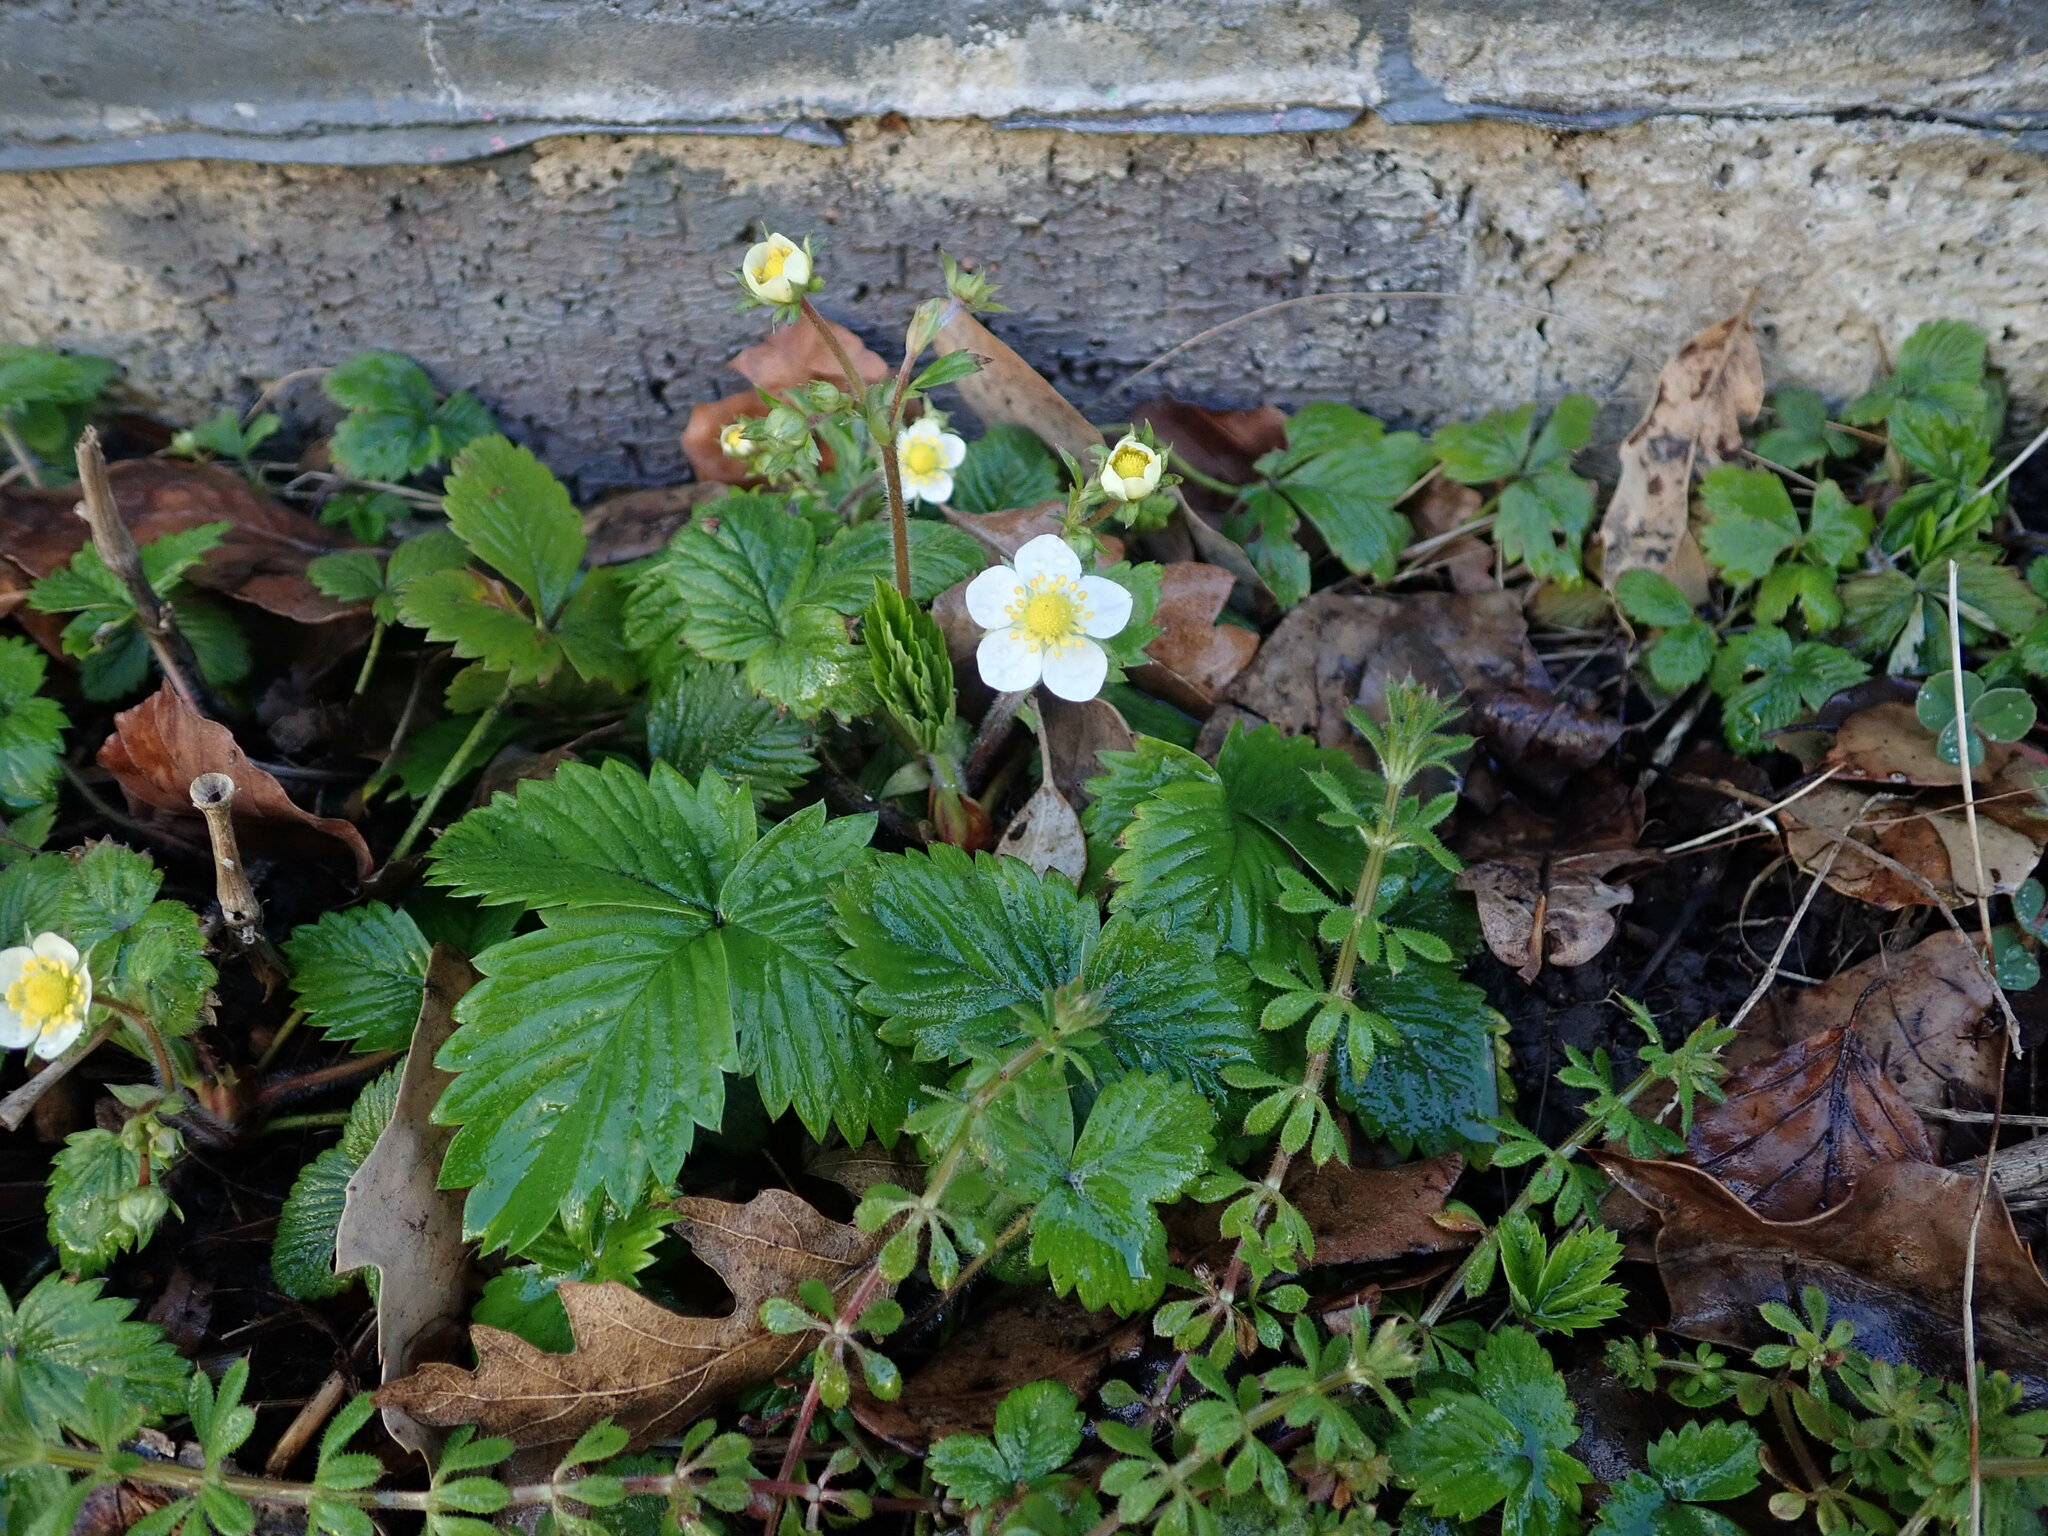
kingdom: Plantae
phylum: Tracheophyta
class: Magnoliopsida
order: Rosales
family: Rosaceae
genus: Fragaria
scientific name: Fragaria vesca
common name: Wild strawberry
